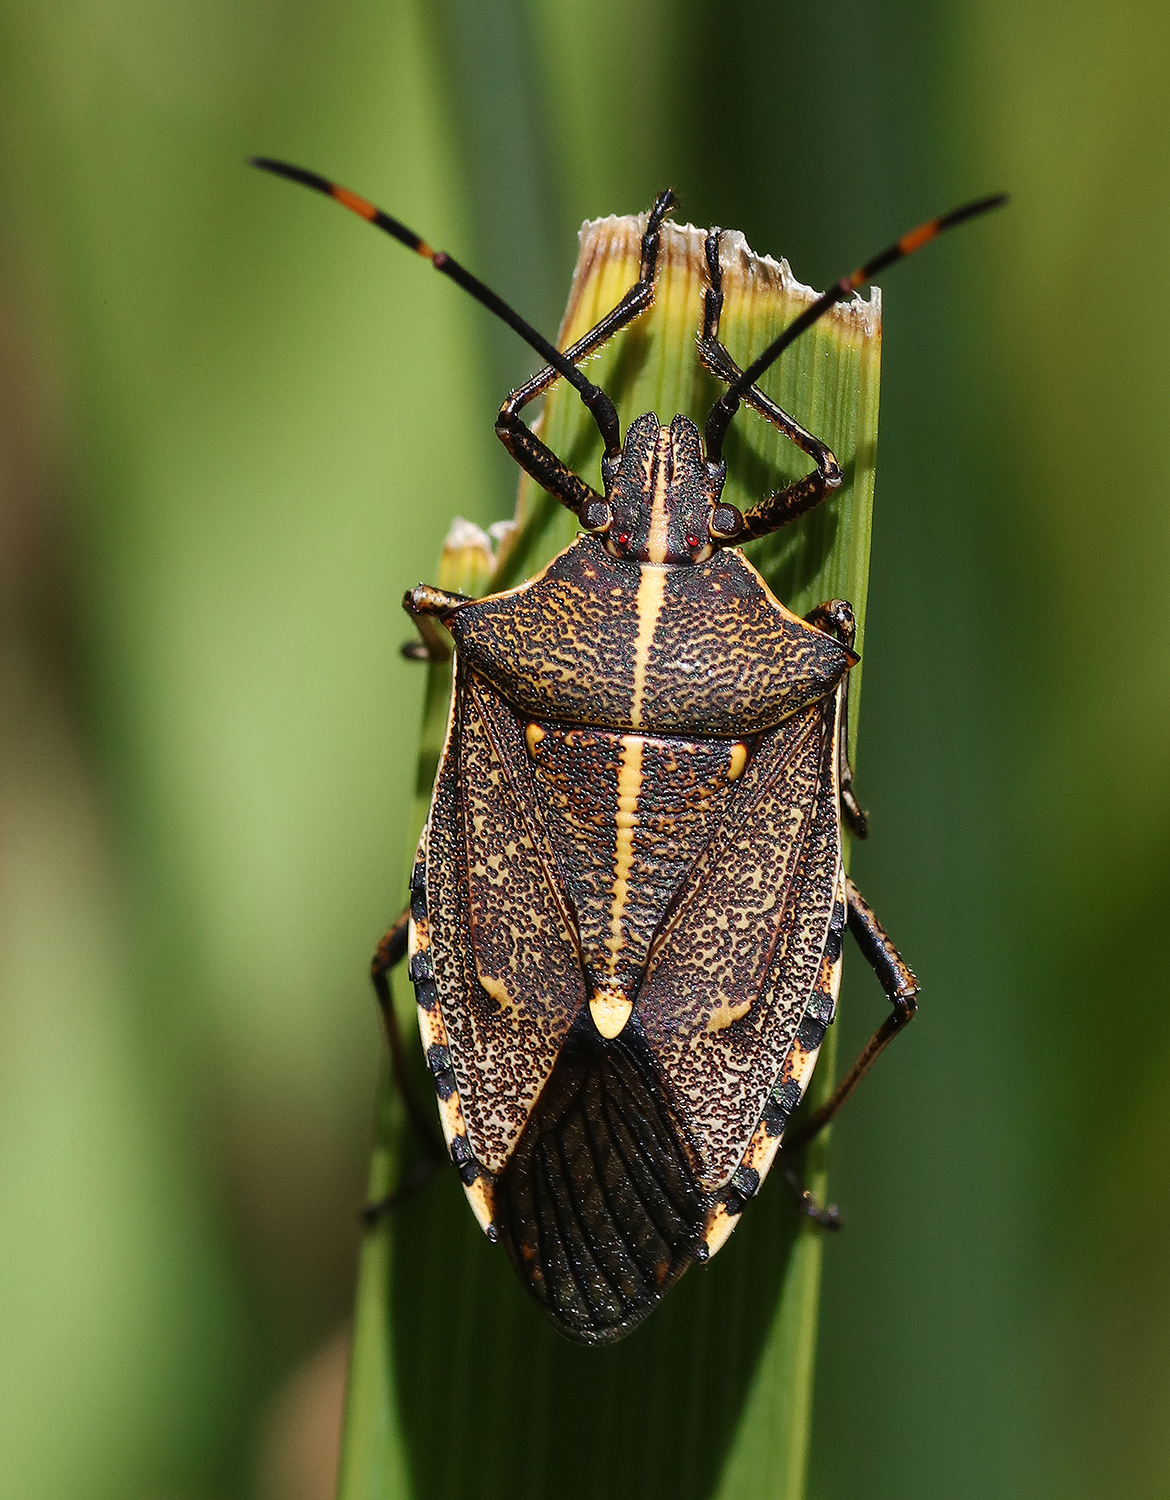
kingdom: Animalia
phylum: Arthropoda
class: Insecta
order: Hemiptera
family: Pentatomidae
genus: Omyta
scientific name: Omyta centrolineata
